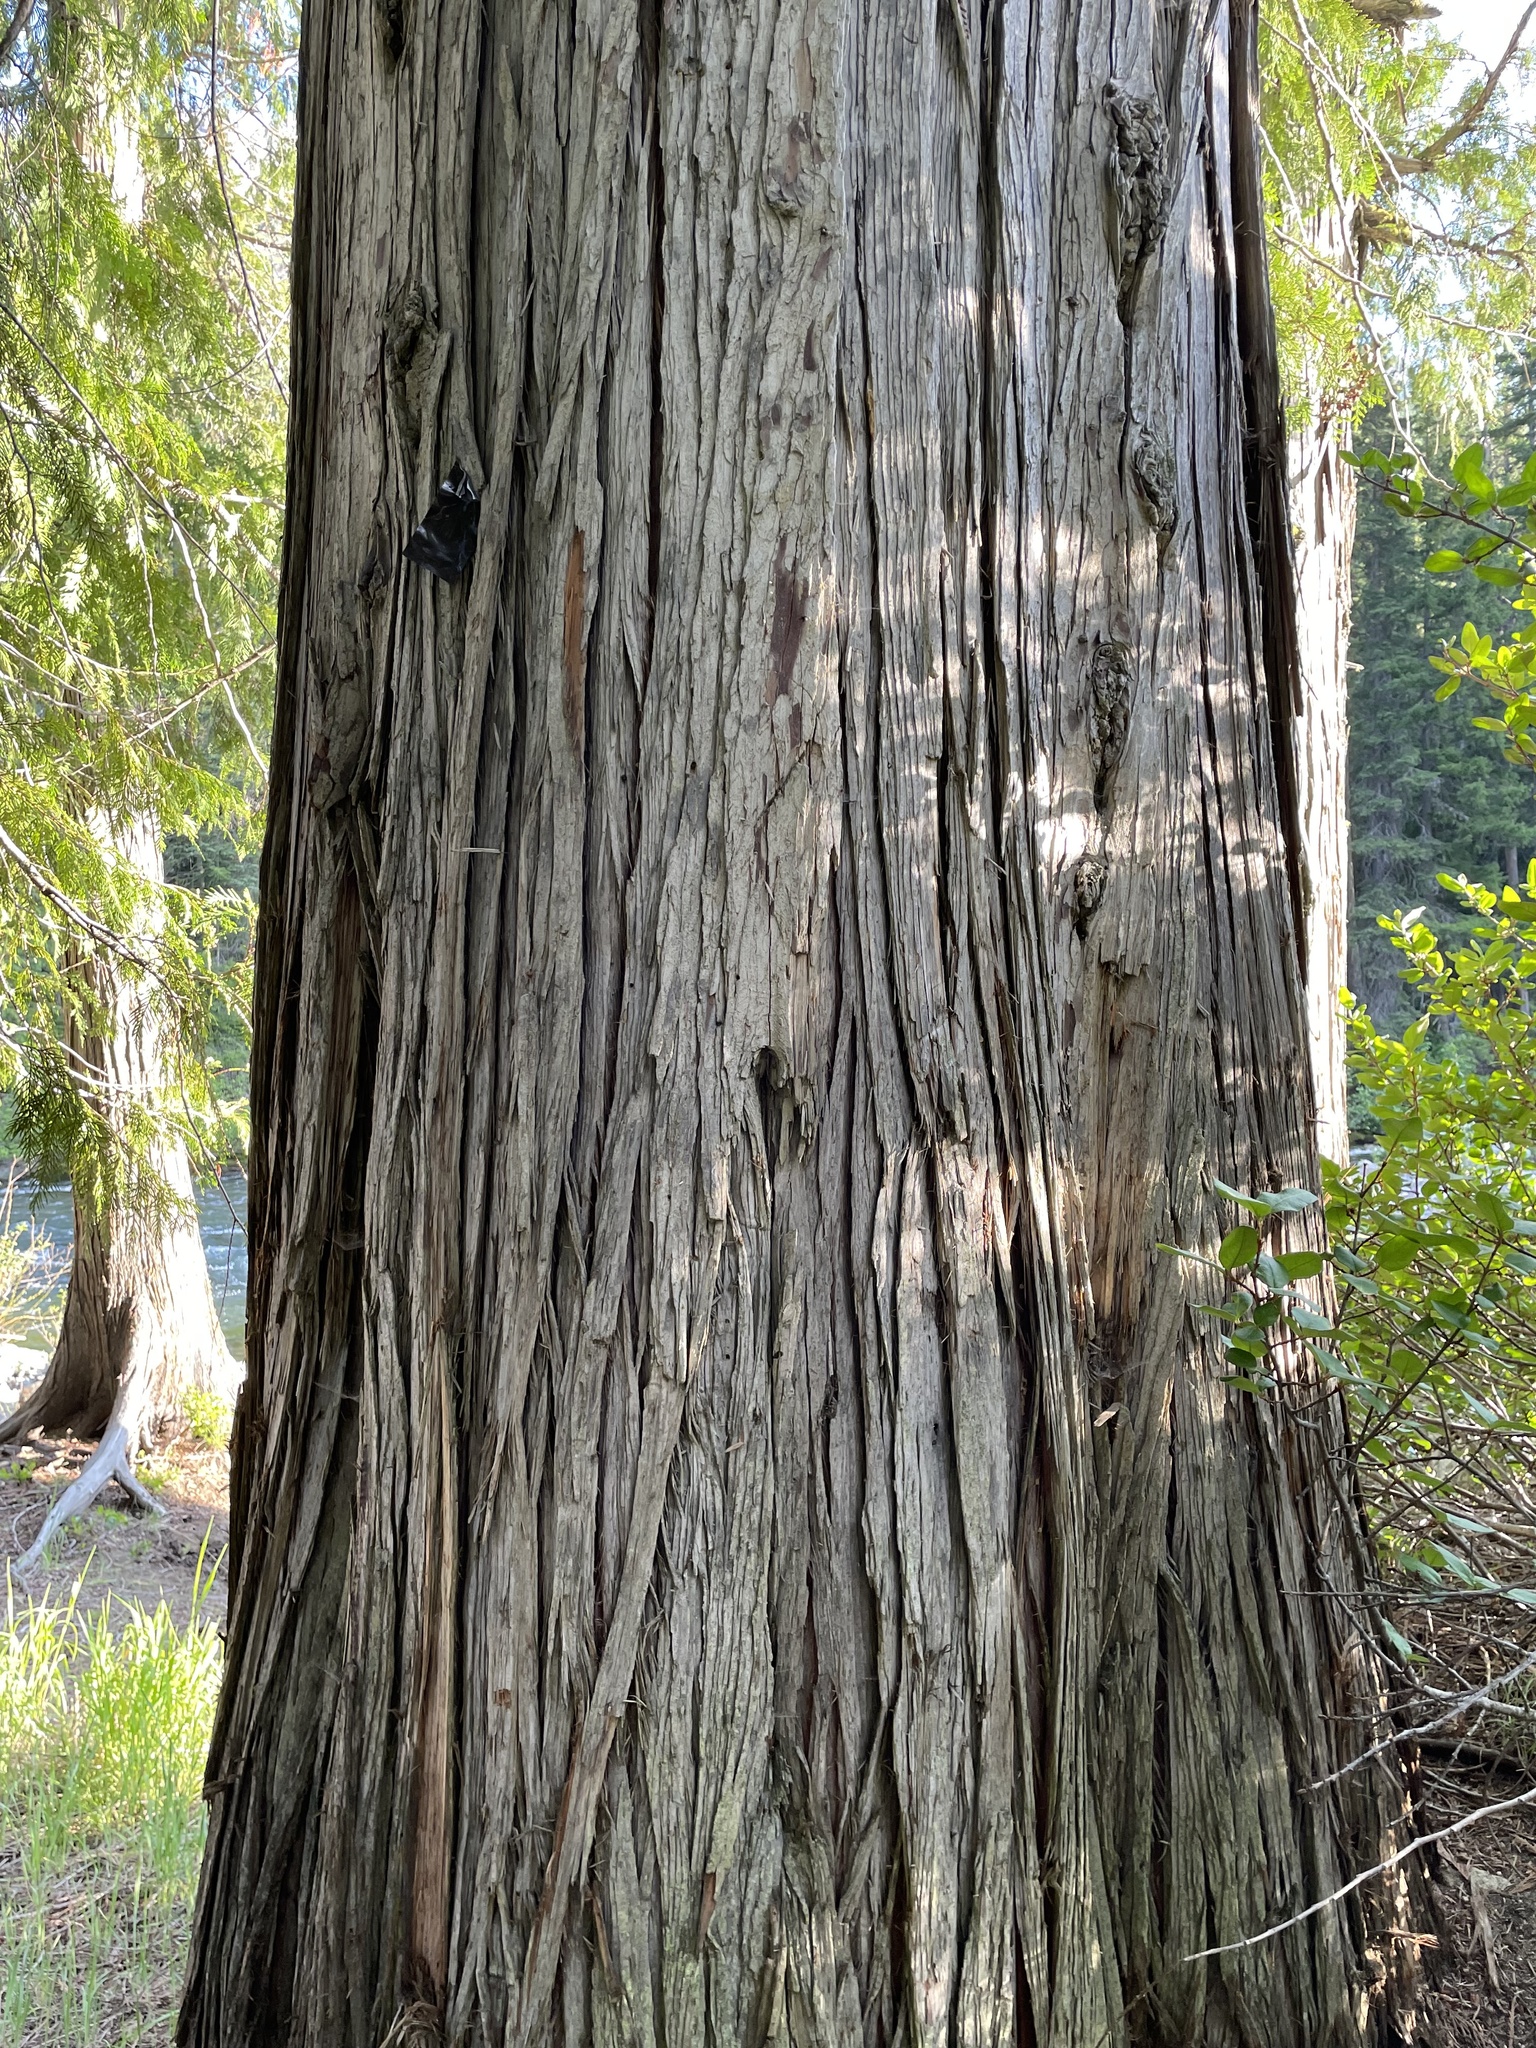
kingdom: Plantae
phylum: Tracheophyta
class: Pinopsida
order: Pinales
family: Cupressaceae
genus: Thuja
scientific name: Thuja plicata
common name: Western red-cedar
